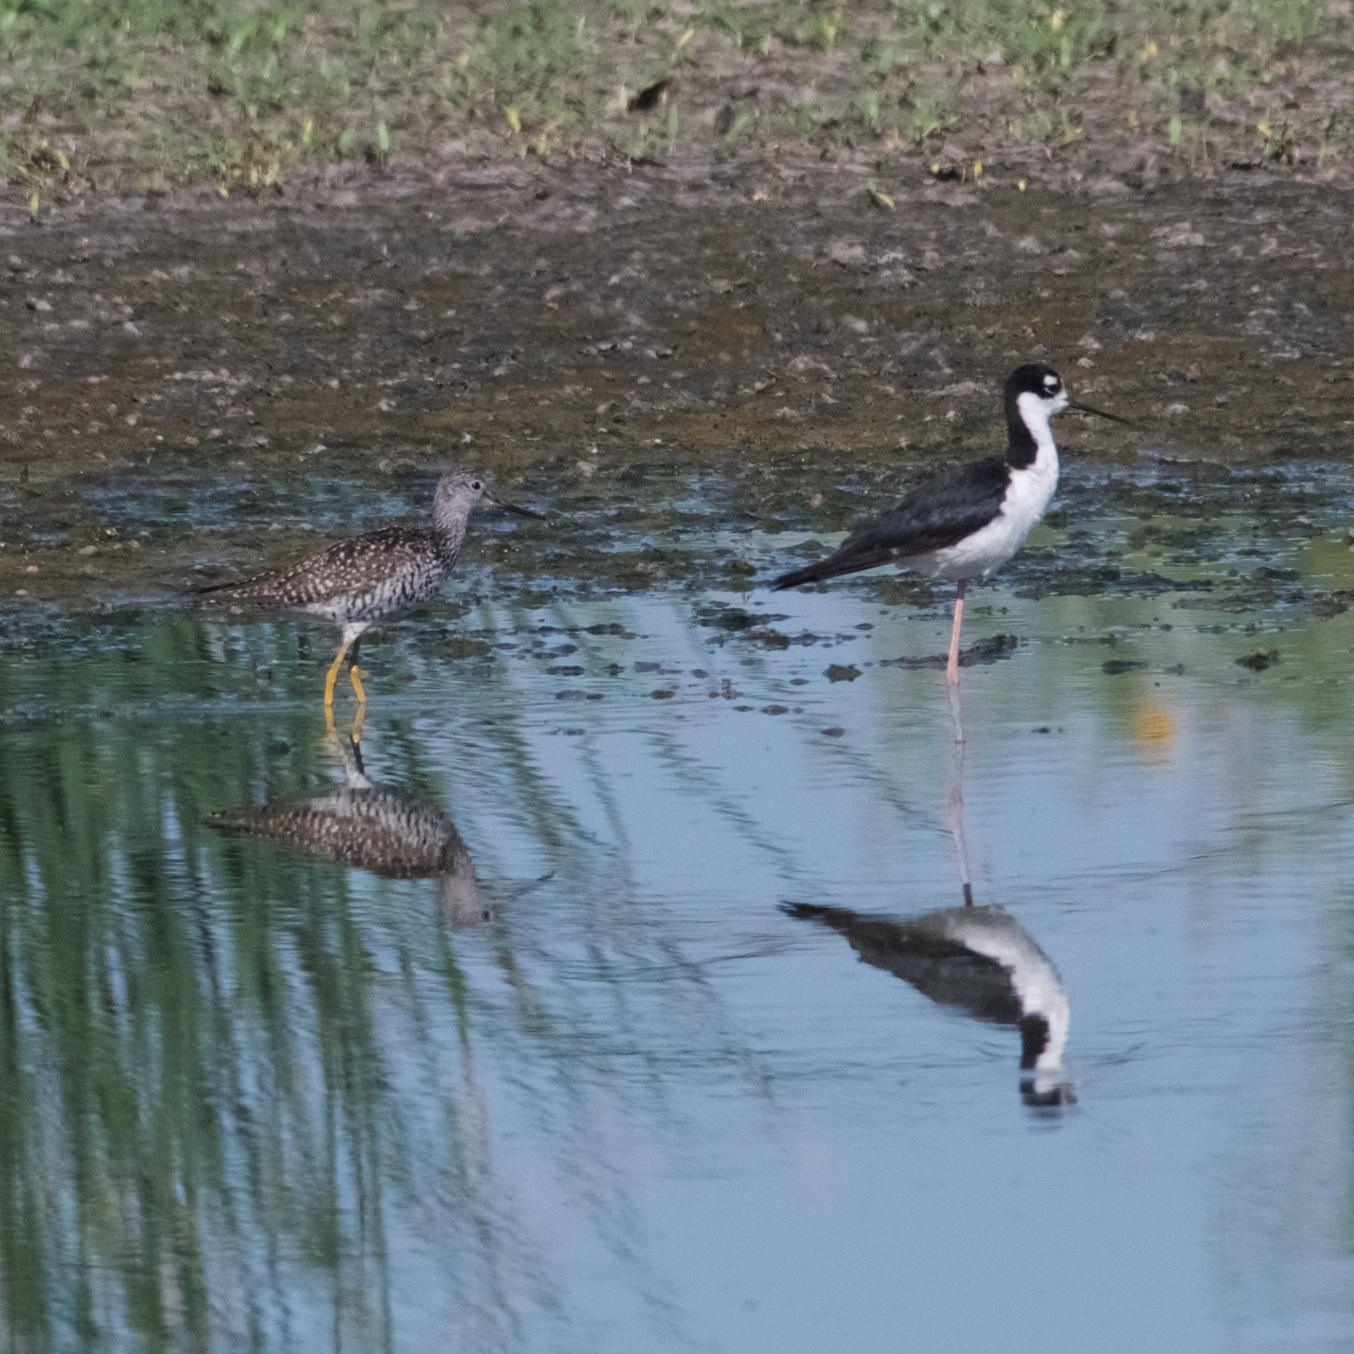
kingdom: Animalia
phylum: Chordata
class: Aves
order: Charadriiformes
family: Recurvirostridae
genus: Himantopus
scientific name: Himantopus mexicanus
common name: Black-necked stilt
